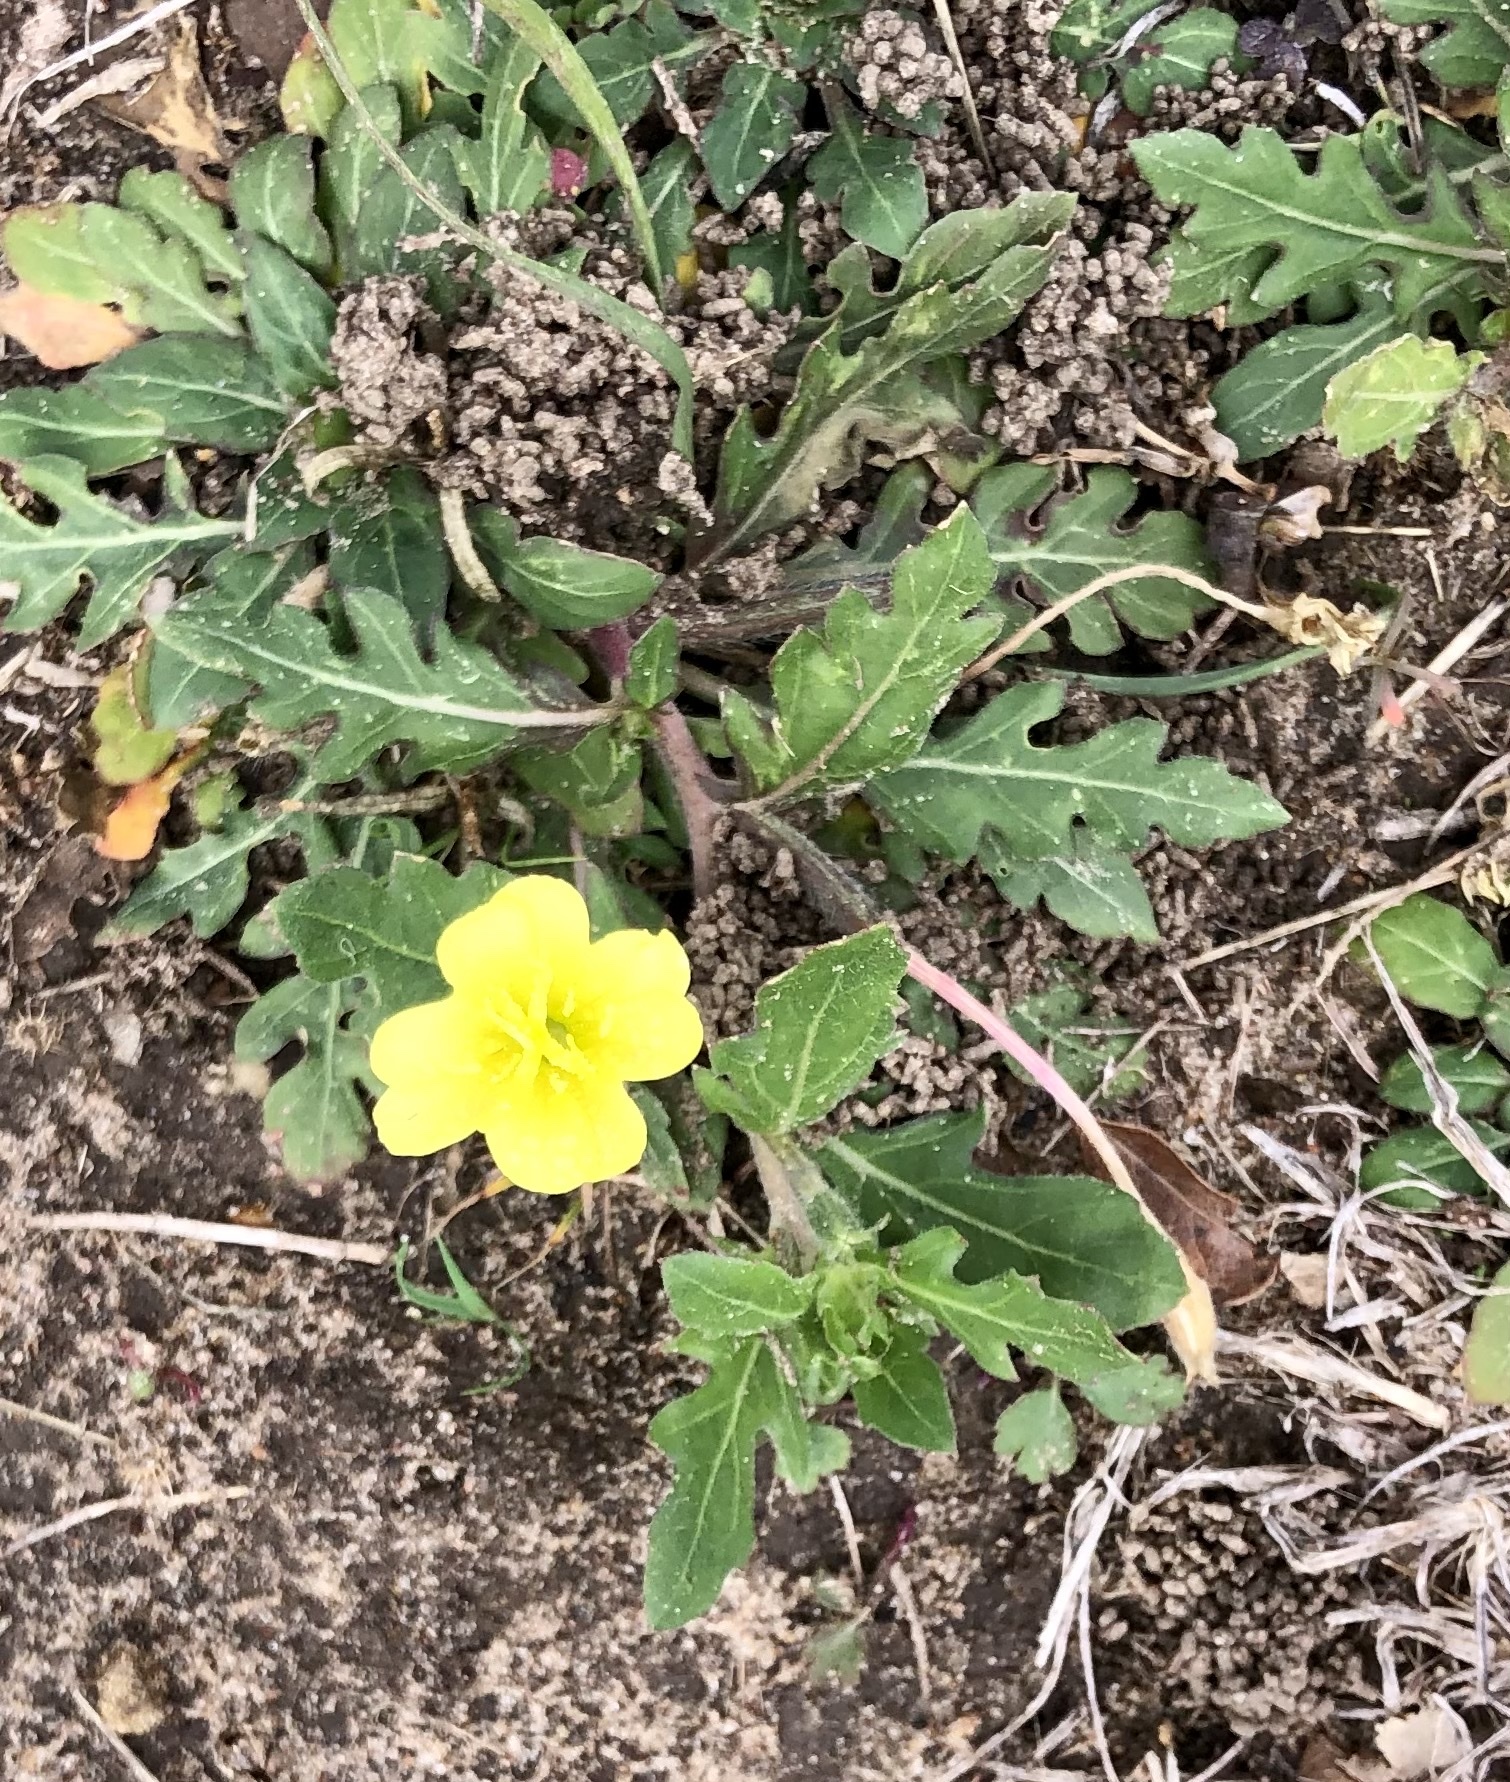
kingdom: Plantae
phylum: Tracheophyta
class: Magnoliopsida
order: Myrtales
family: Onagraceae
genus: Oenothera
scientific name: Oenothera laciniata
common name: Cut-leaved evening-primrose
